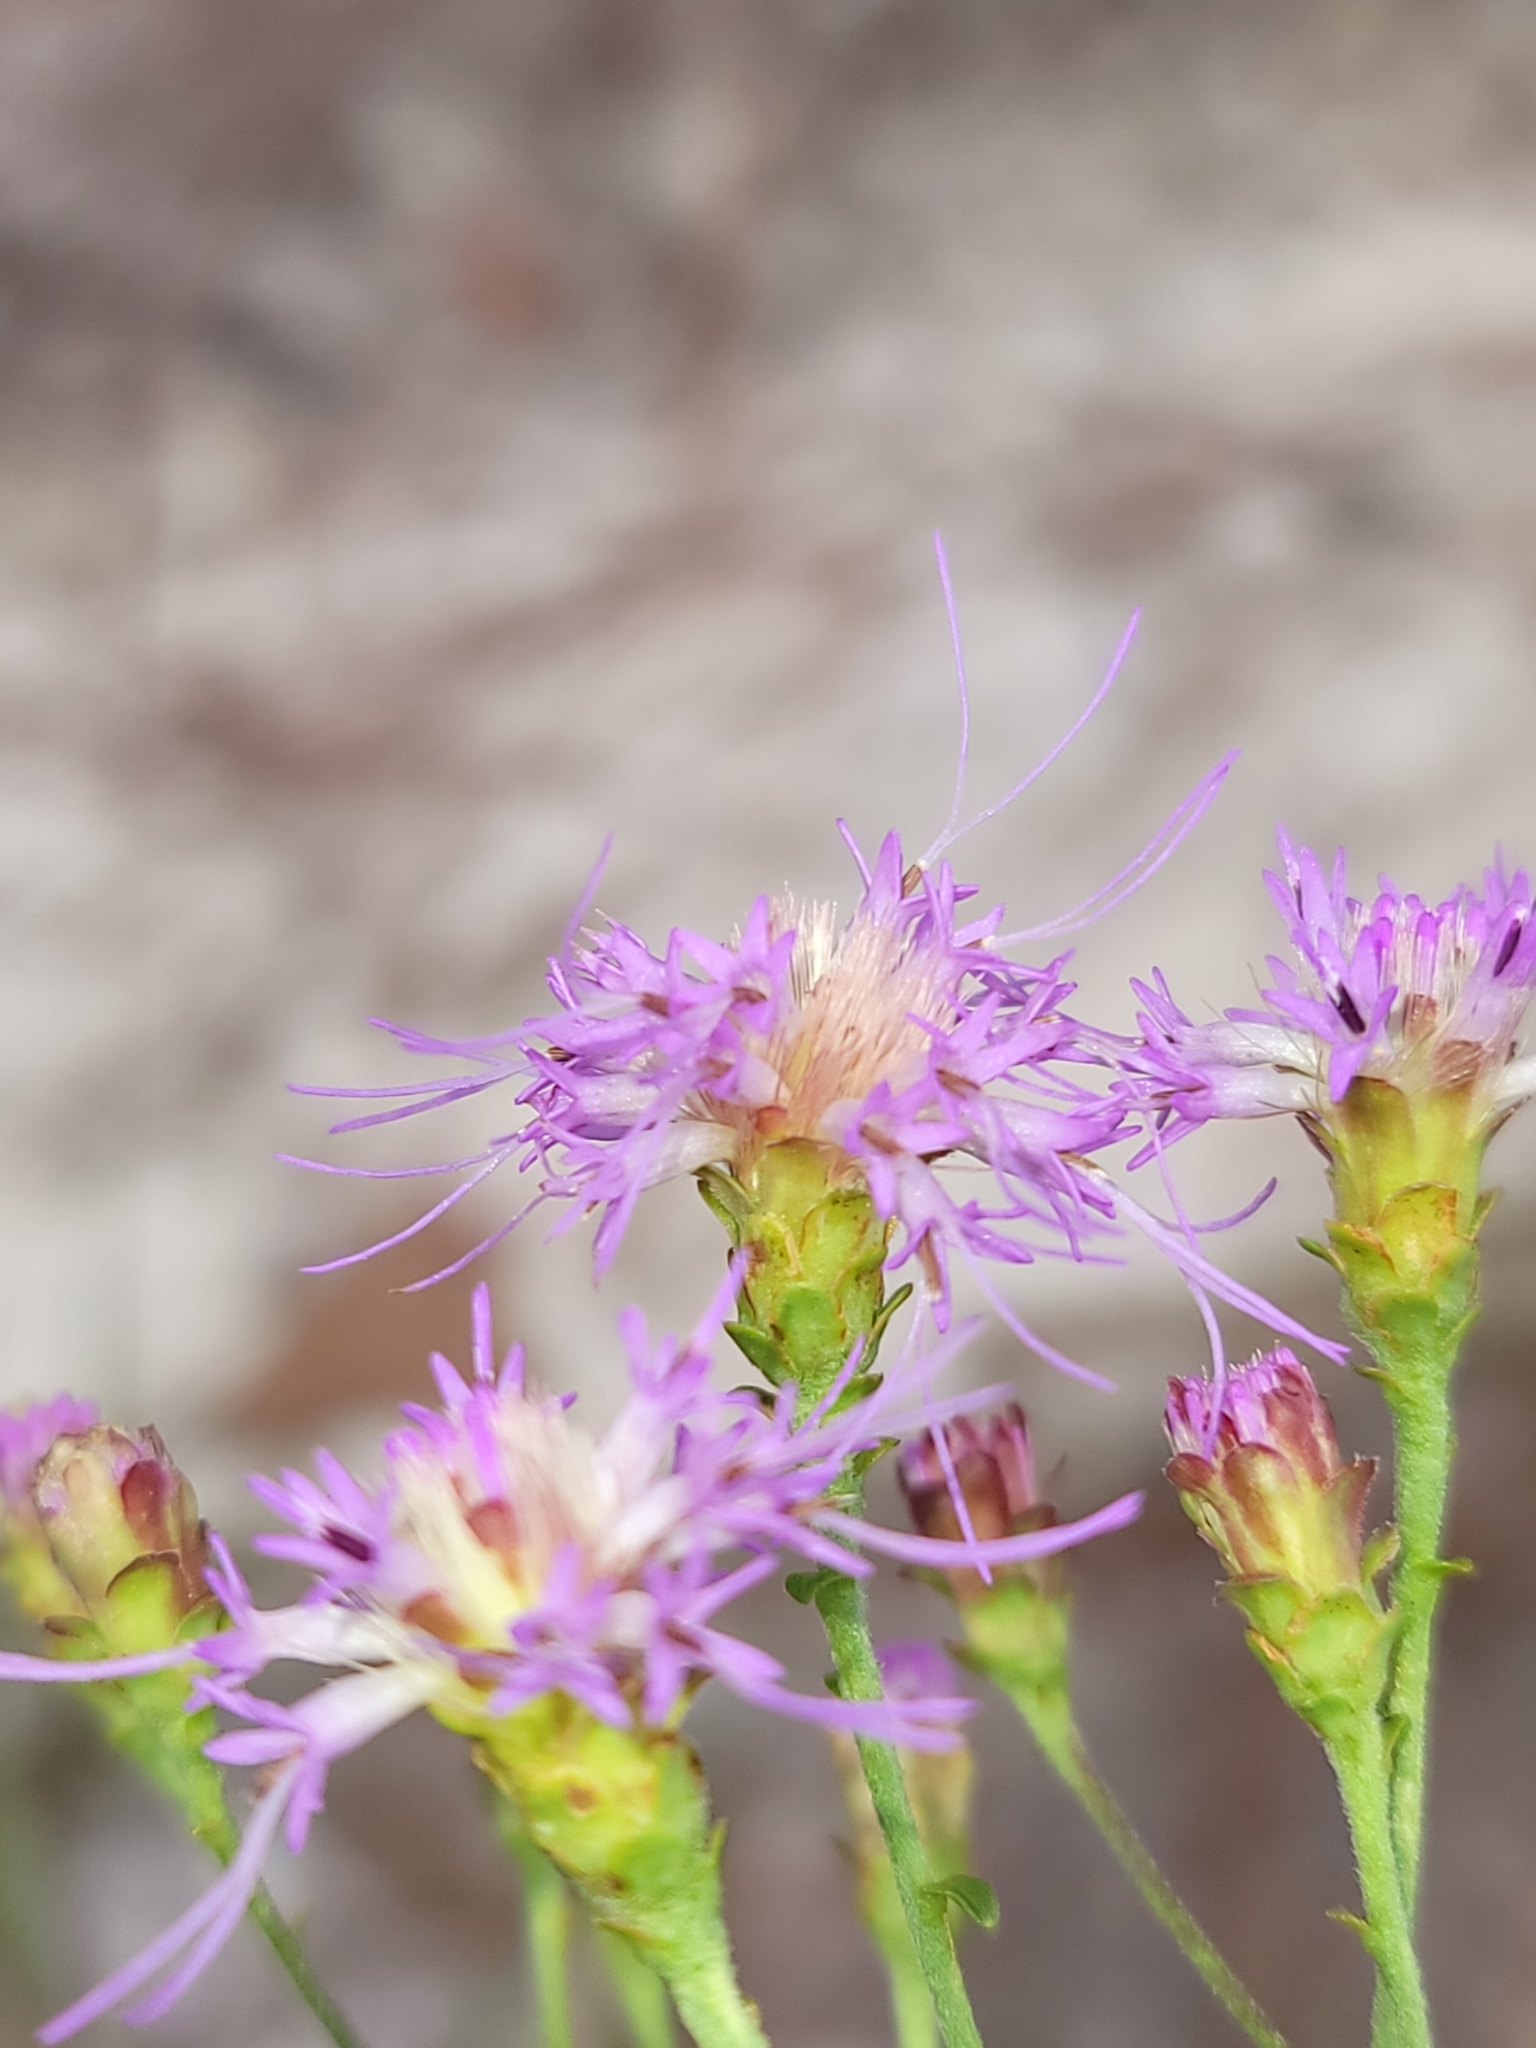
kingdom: Plantae
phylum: Tracheophyta
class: Magnoliopsida
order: Asterales
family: Asteraceae
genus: Carphephorus
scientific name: Carphephorus bellidifolius
